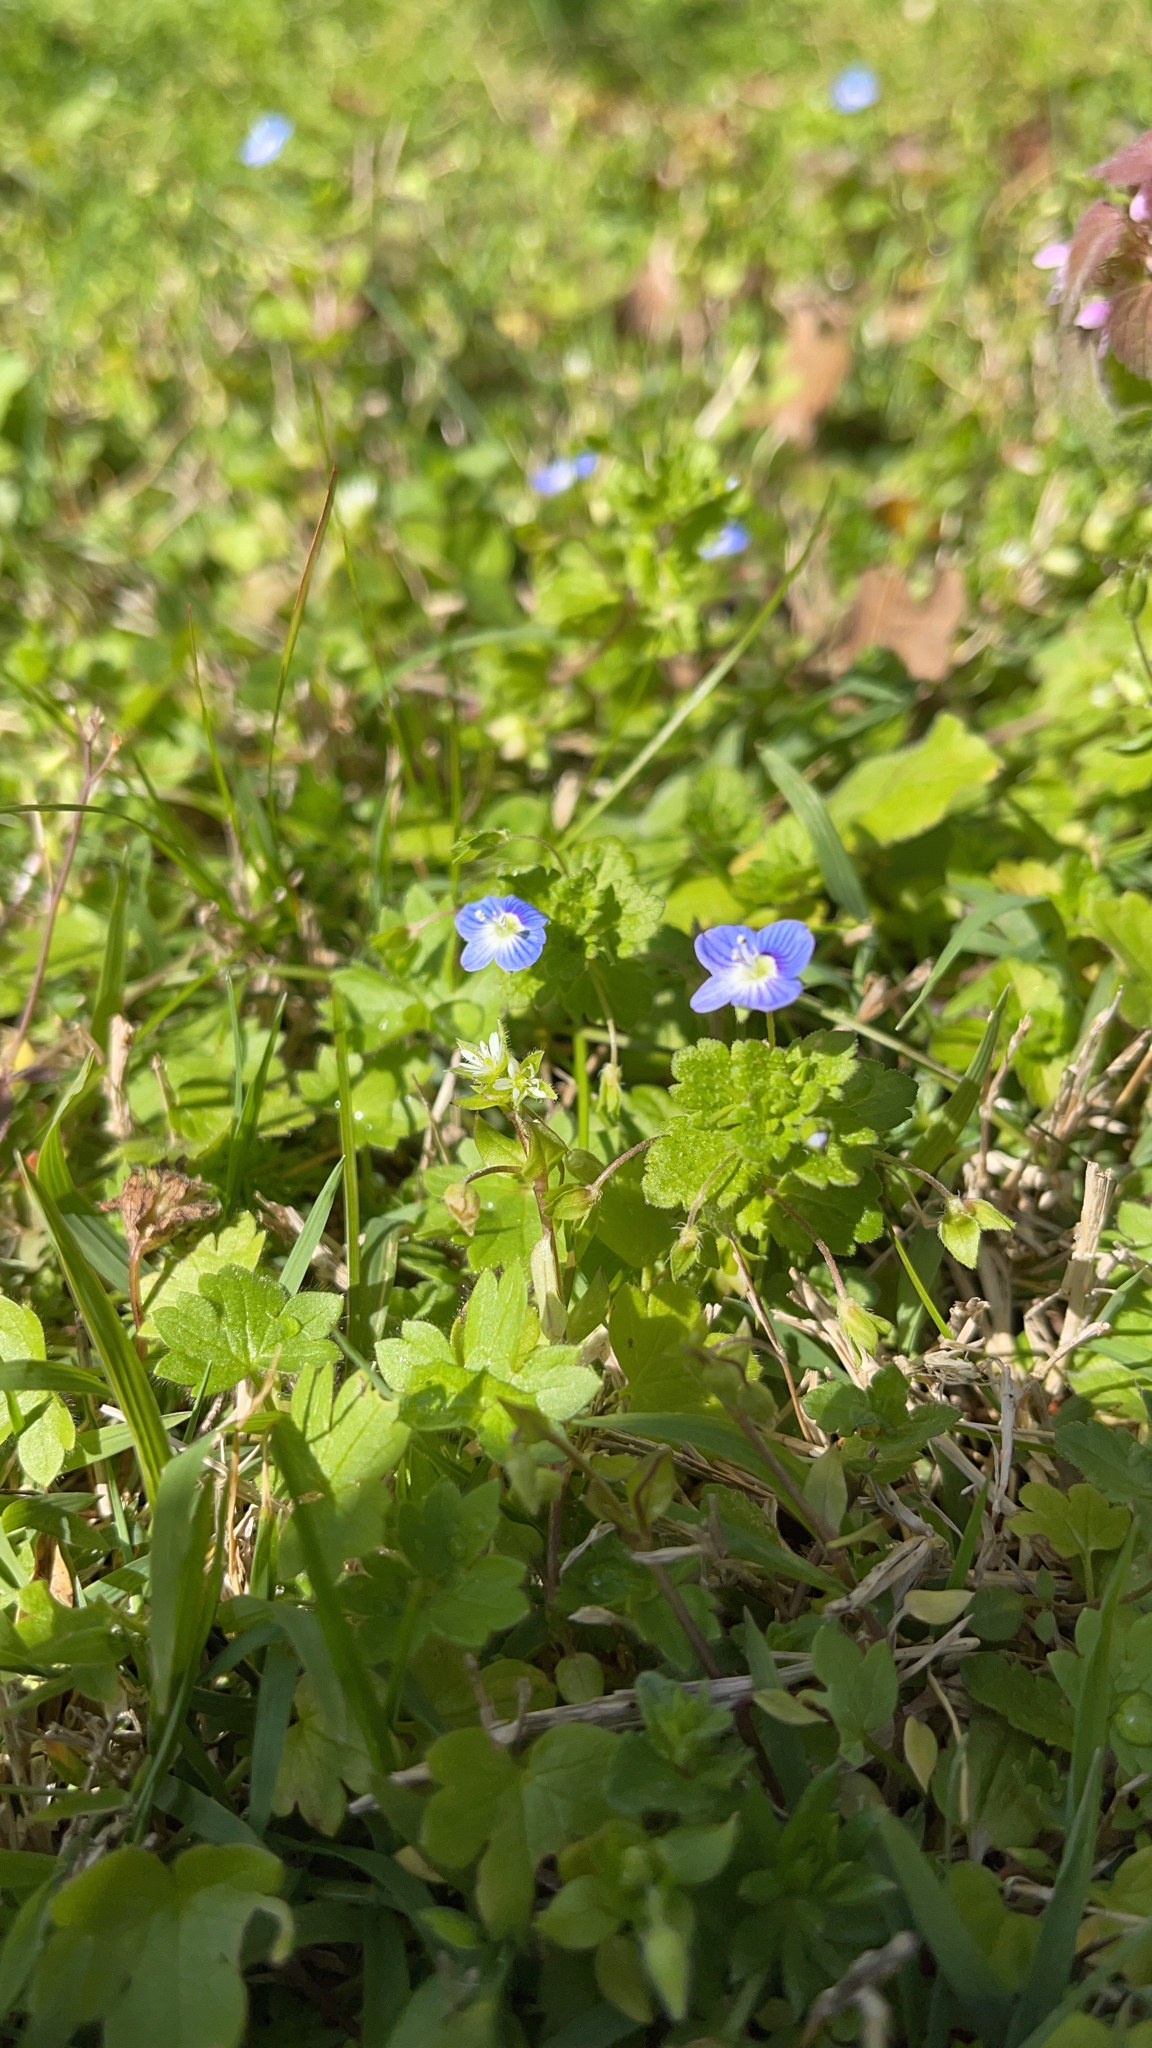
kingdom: Plantae
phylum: Tracheophyta
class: Magnoliopsida
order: Lamiales
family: Plantaginaceae
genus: Veronica
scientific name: Veronica persica
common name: Common field-speedwell
